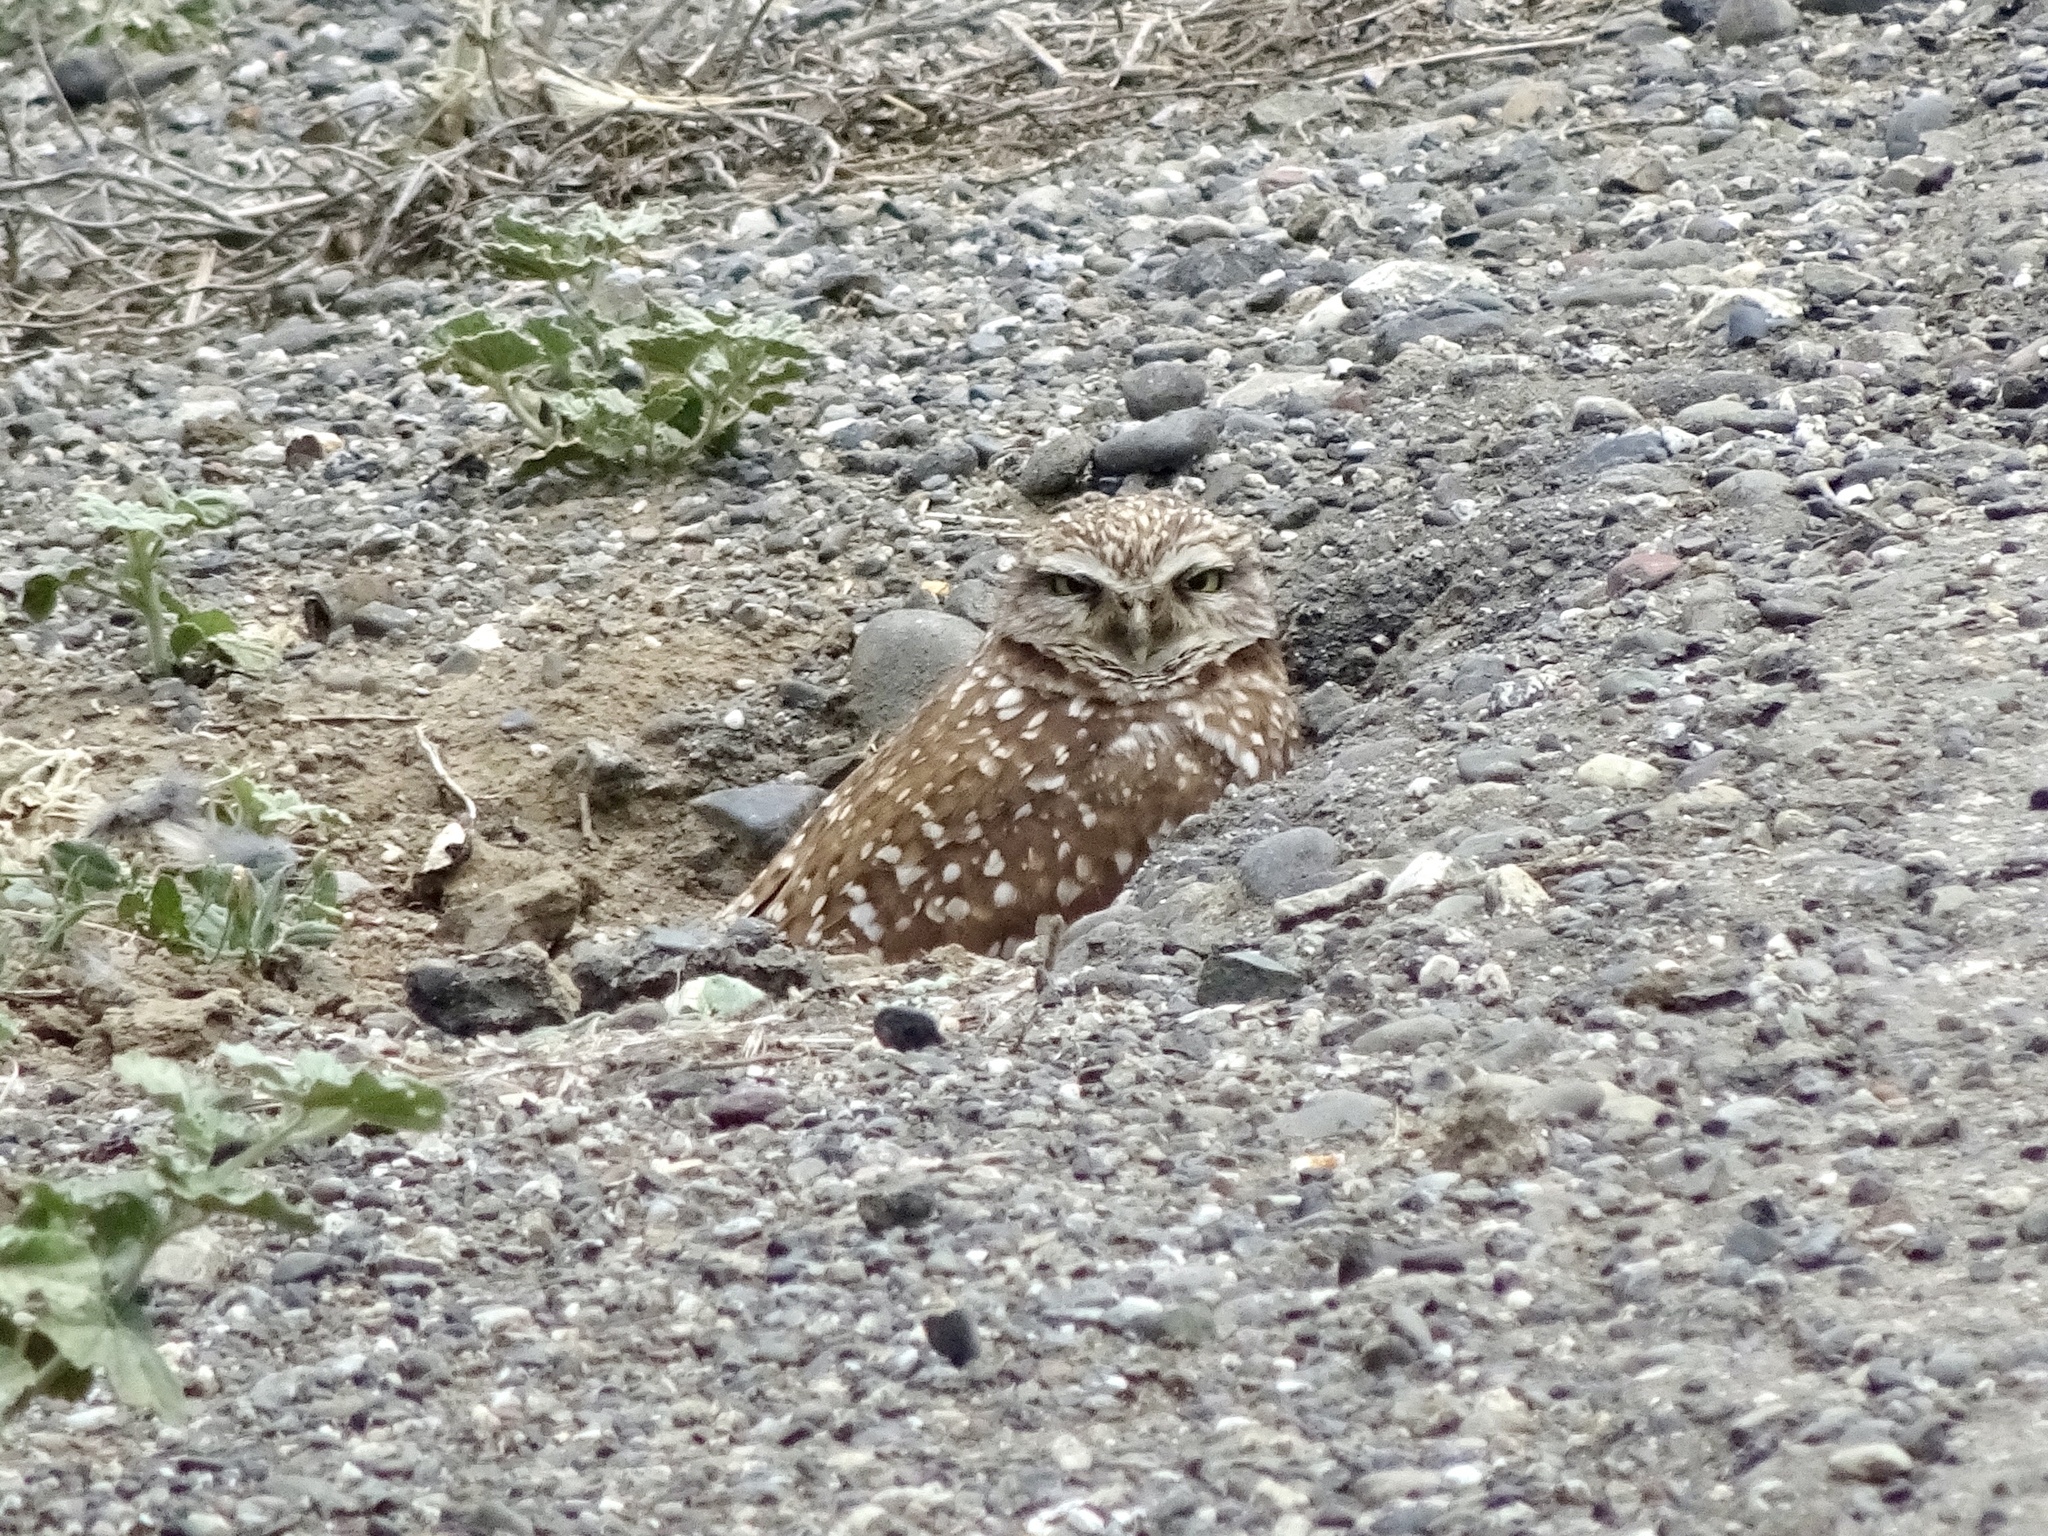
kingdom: Animalia
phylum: Chordata
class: Aves
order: Strigiformes
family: Strigidae
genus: Athene
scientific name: Athene cunicularia
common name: Burrowing owl
